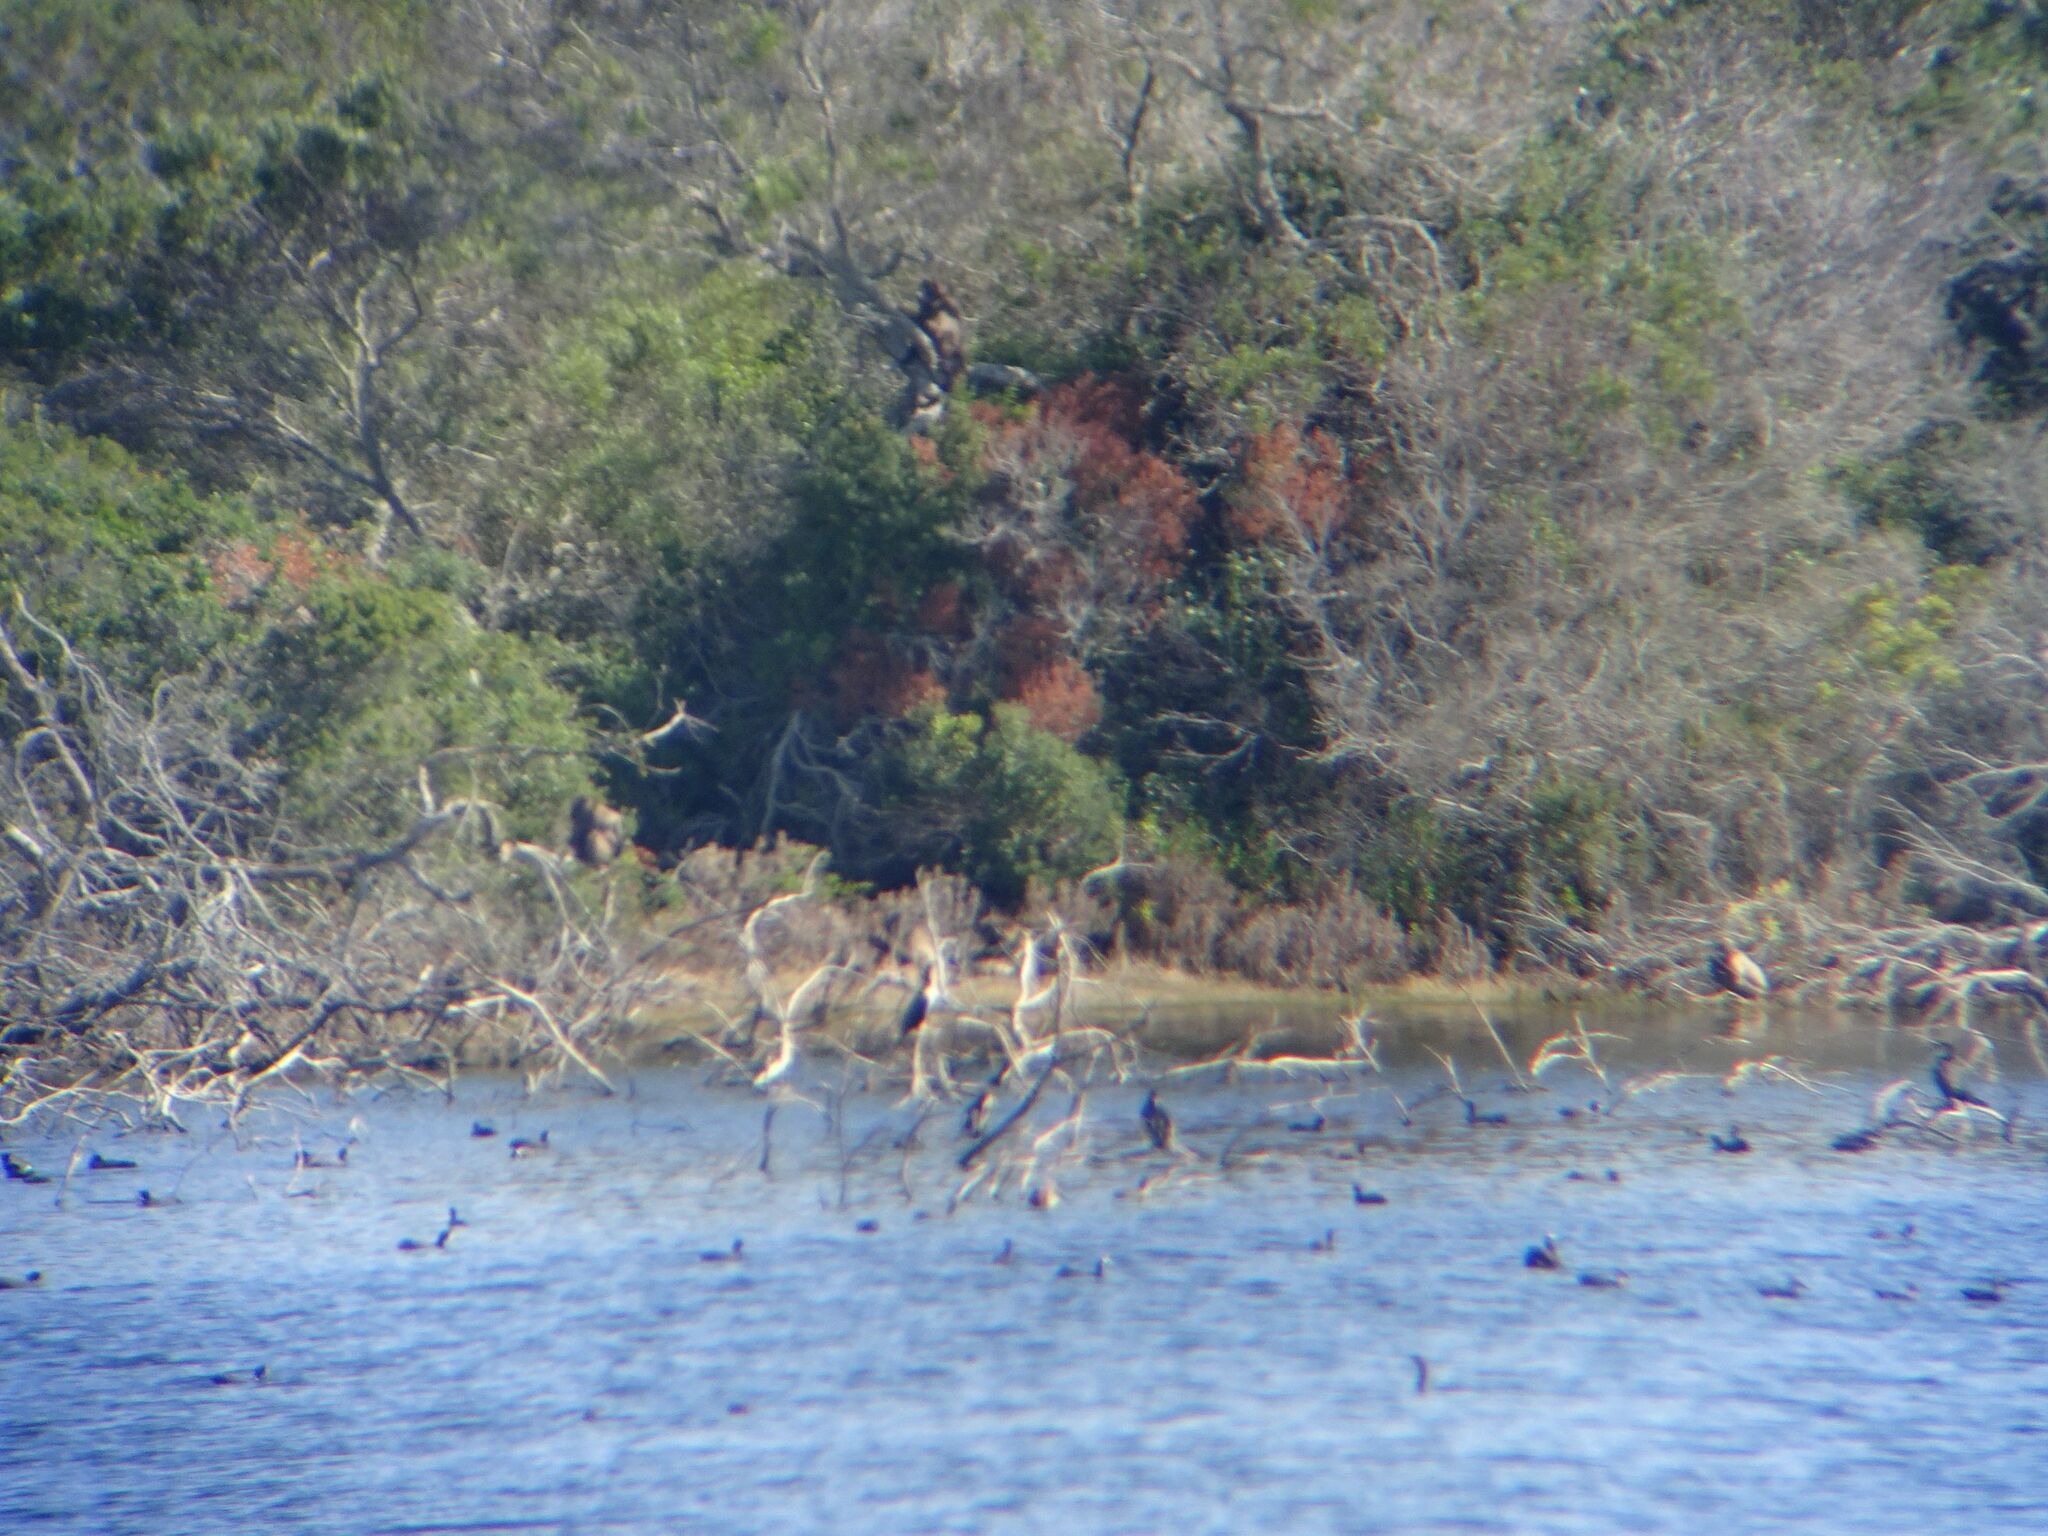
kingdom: Animalia
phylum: Chordata
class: Mammalia
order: Primates
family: Cercopithecidae
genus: Papio
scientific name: Papio ursinus
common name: Chacma baboon
